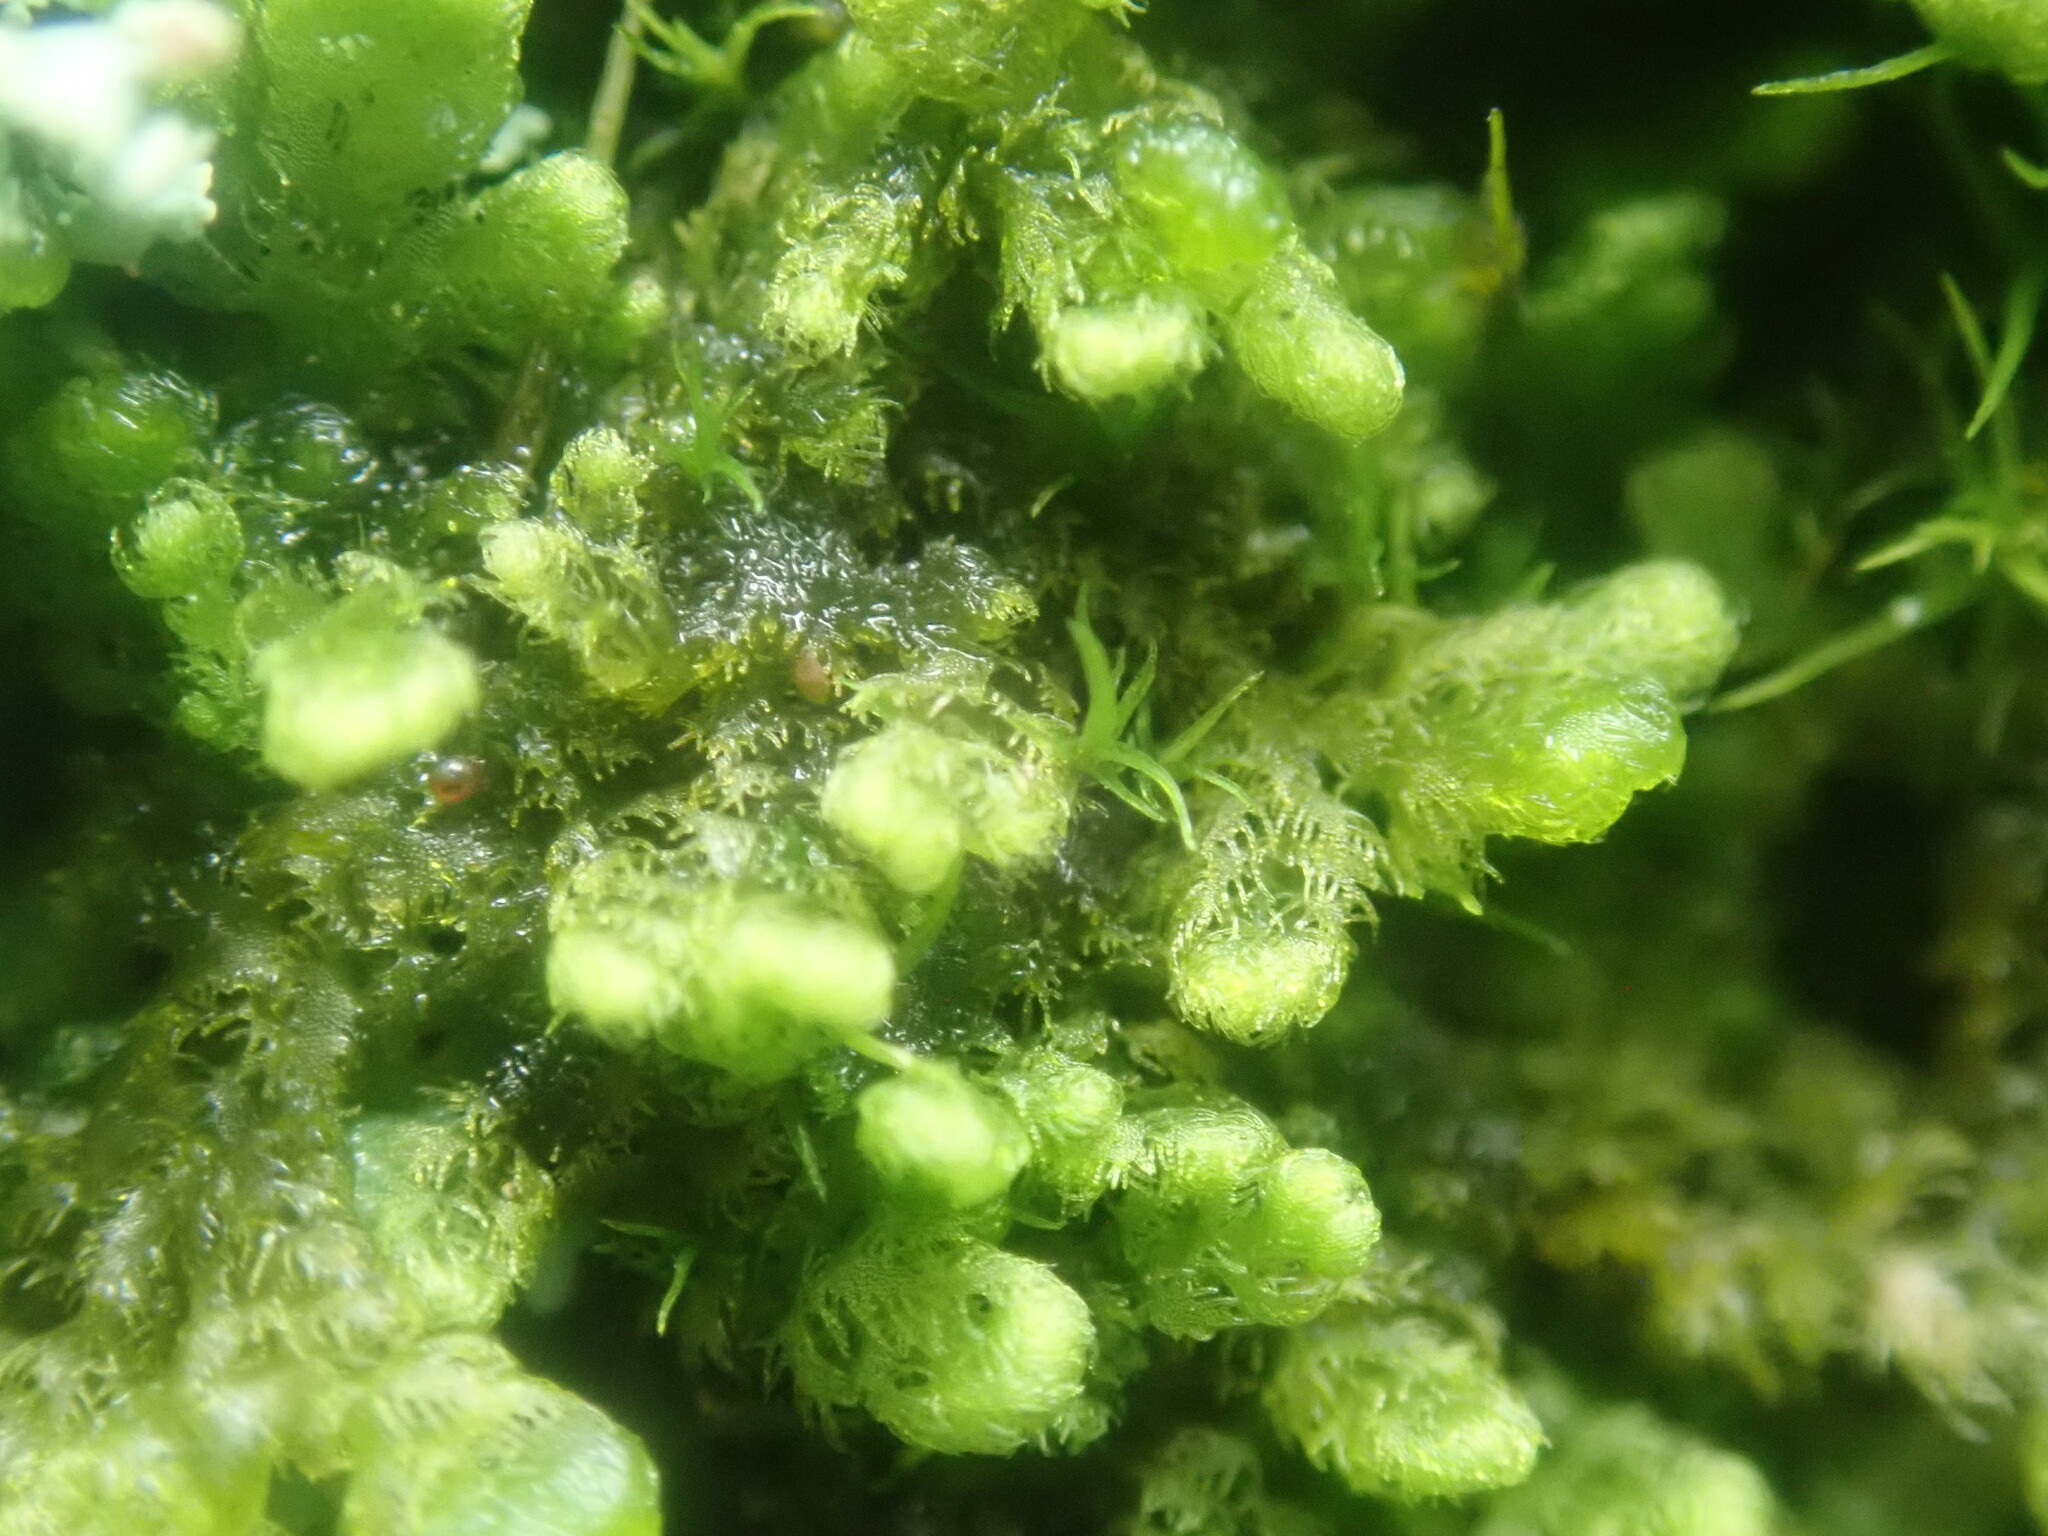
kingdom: Plantae
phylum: Marchantiophyta
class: Jungermanniopsida
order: Ptilidiales
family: Ptilidiaceae
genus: Ptilidium
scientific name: Ptilidium pulcherrimum
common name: Tree fringewort
